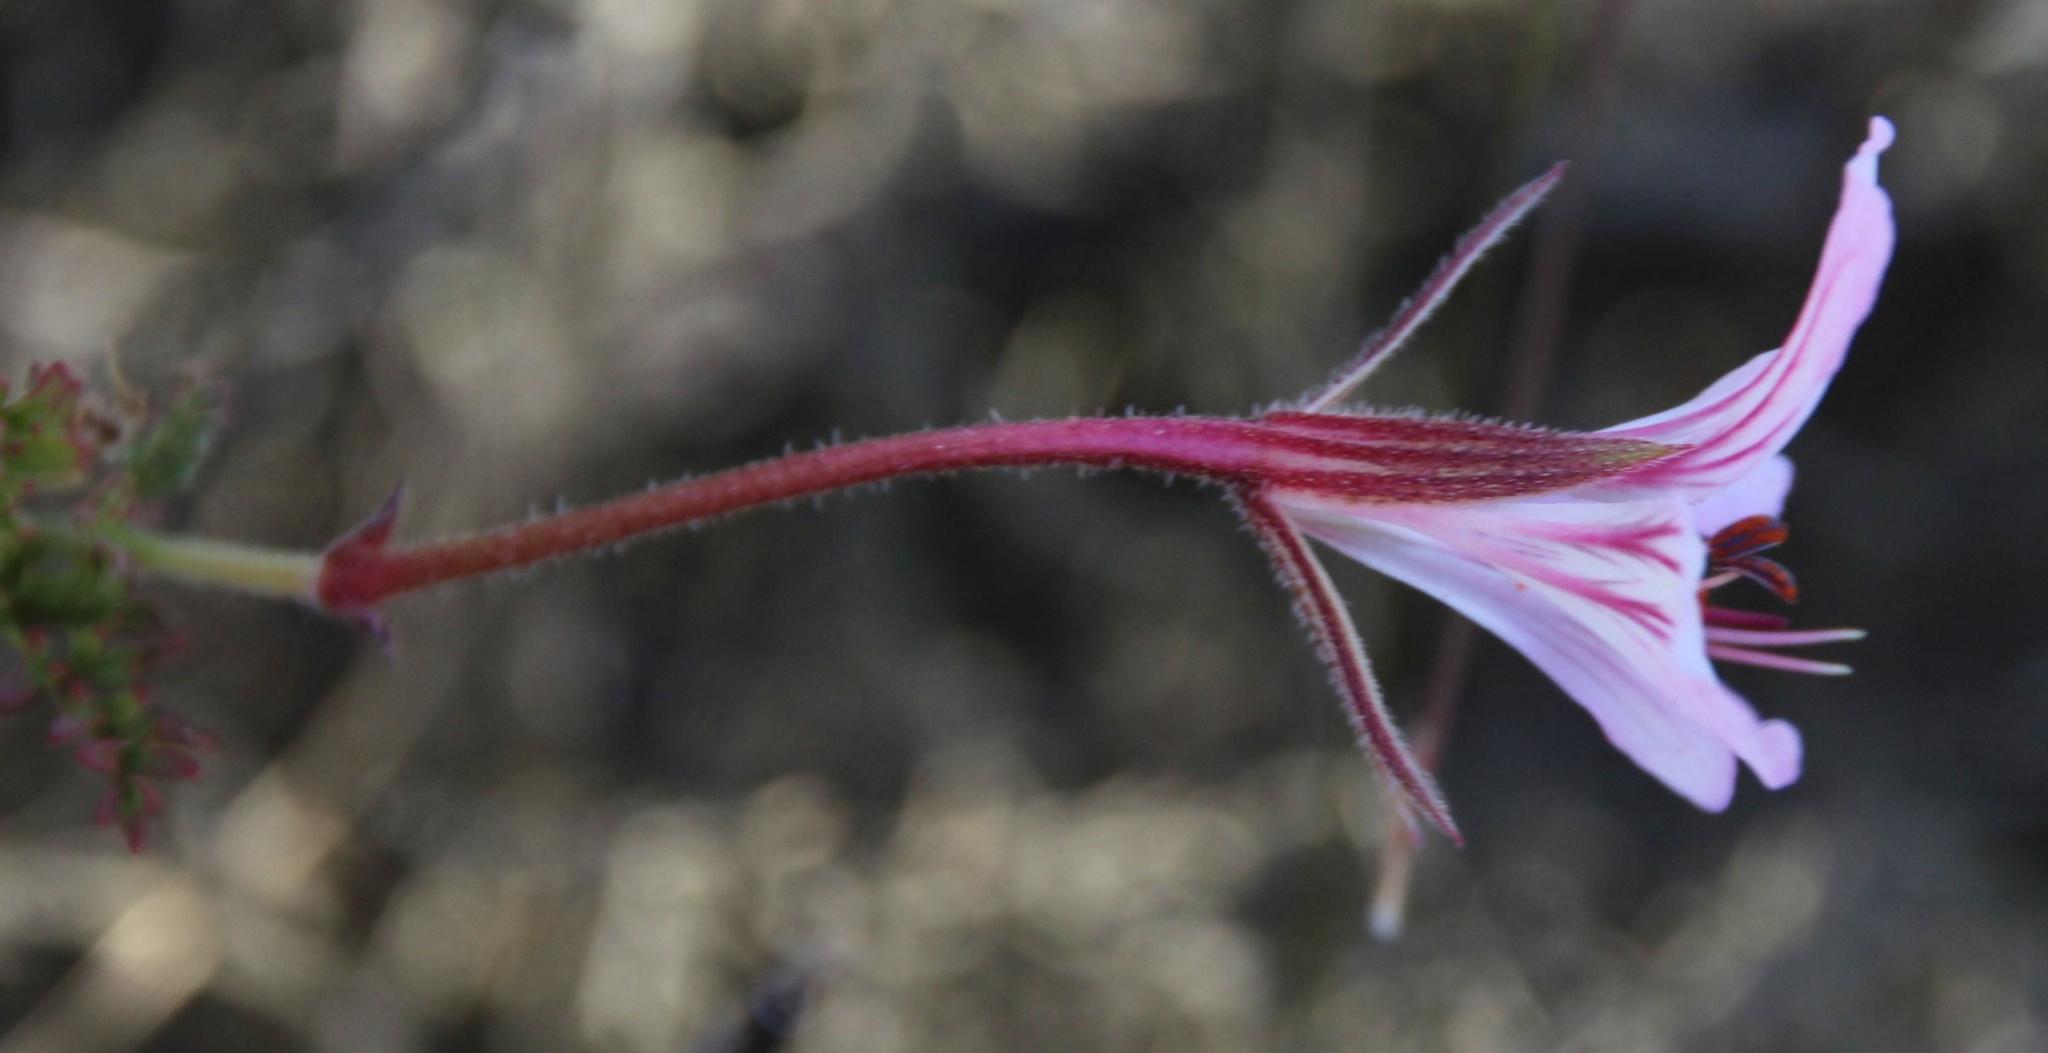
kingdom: Plantae
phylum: Tracheophyta
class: Magnoliopsida
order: Geraniales
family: Geraniaceae
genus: Pelargonium
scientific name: Pelargonium caucalifolium
